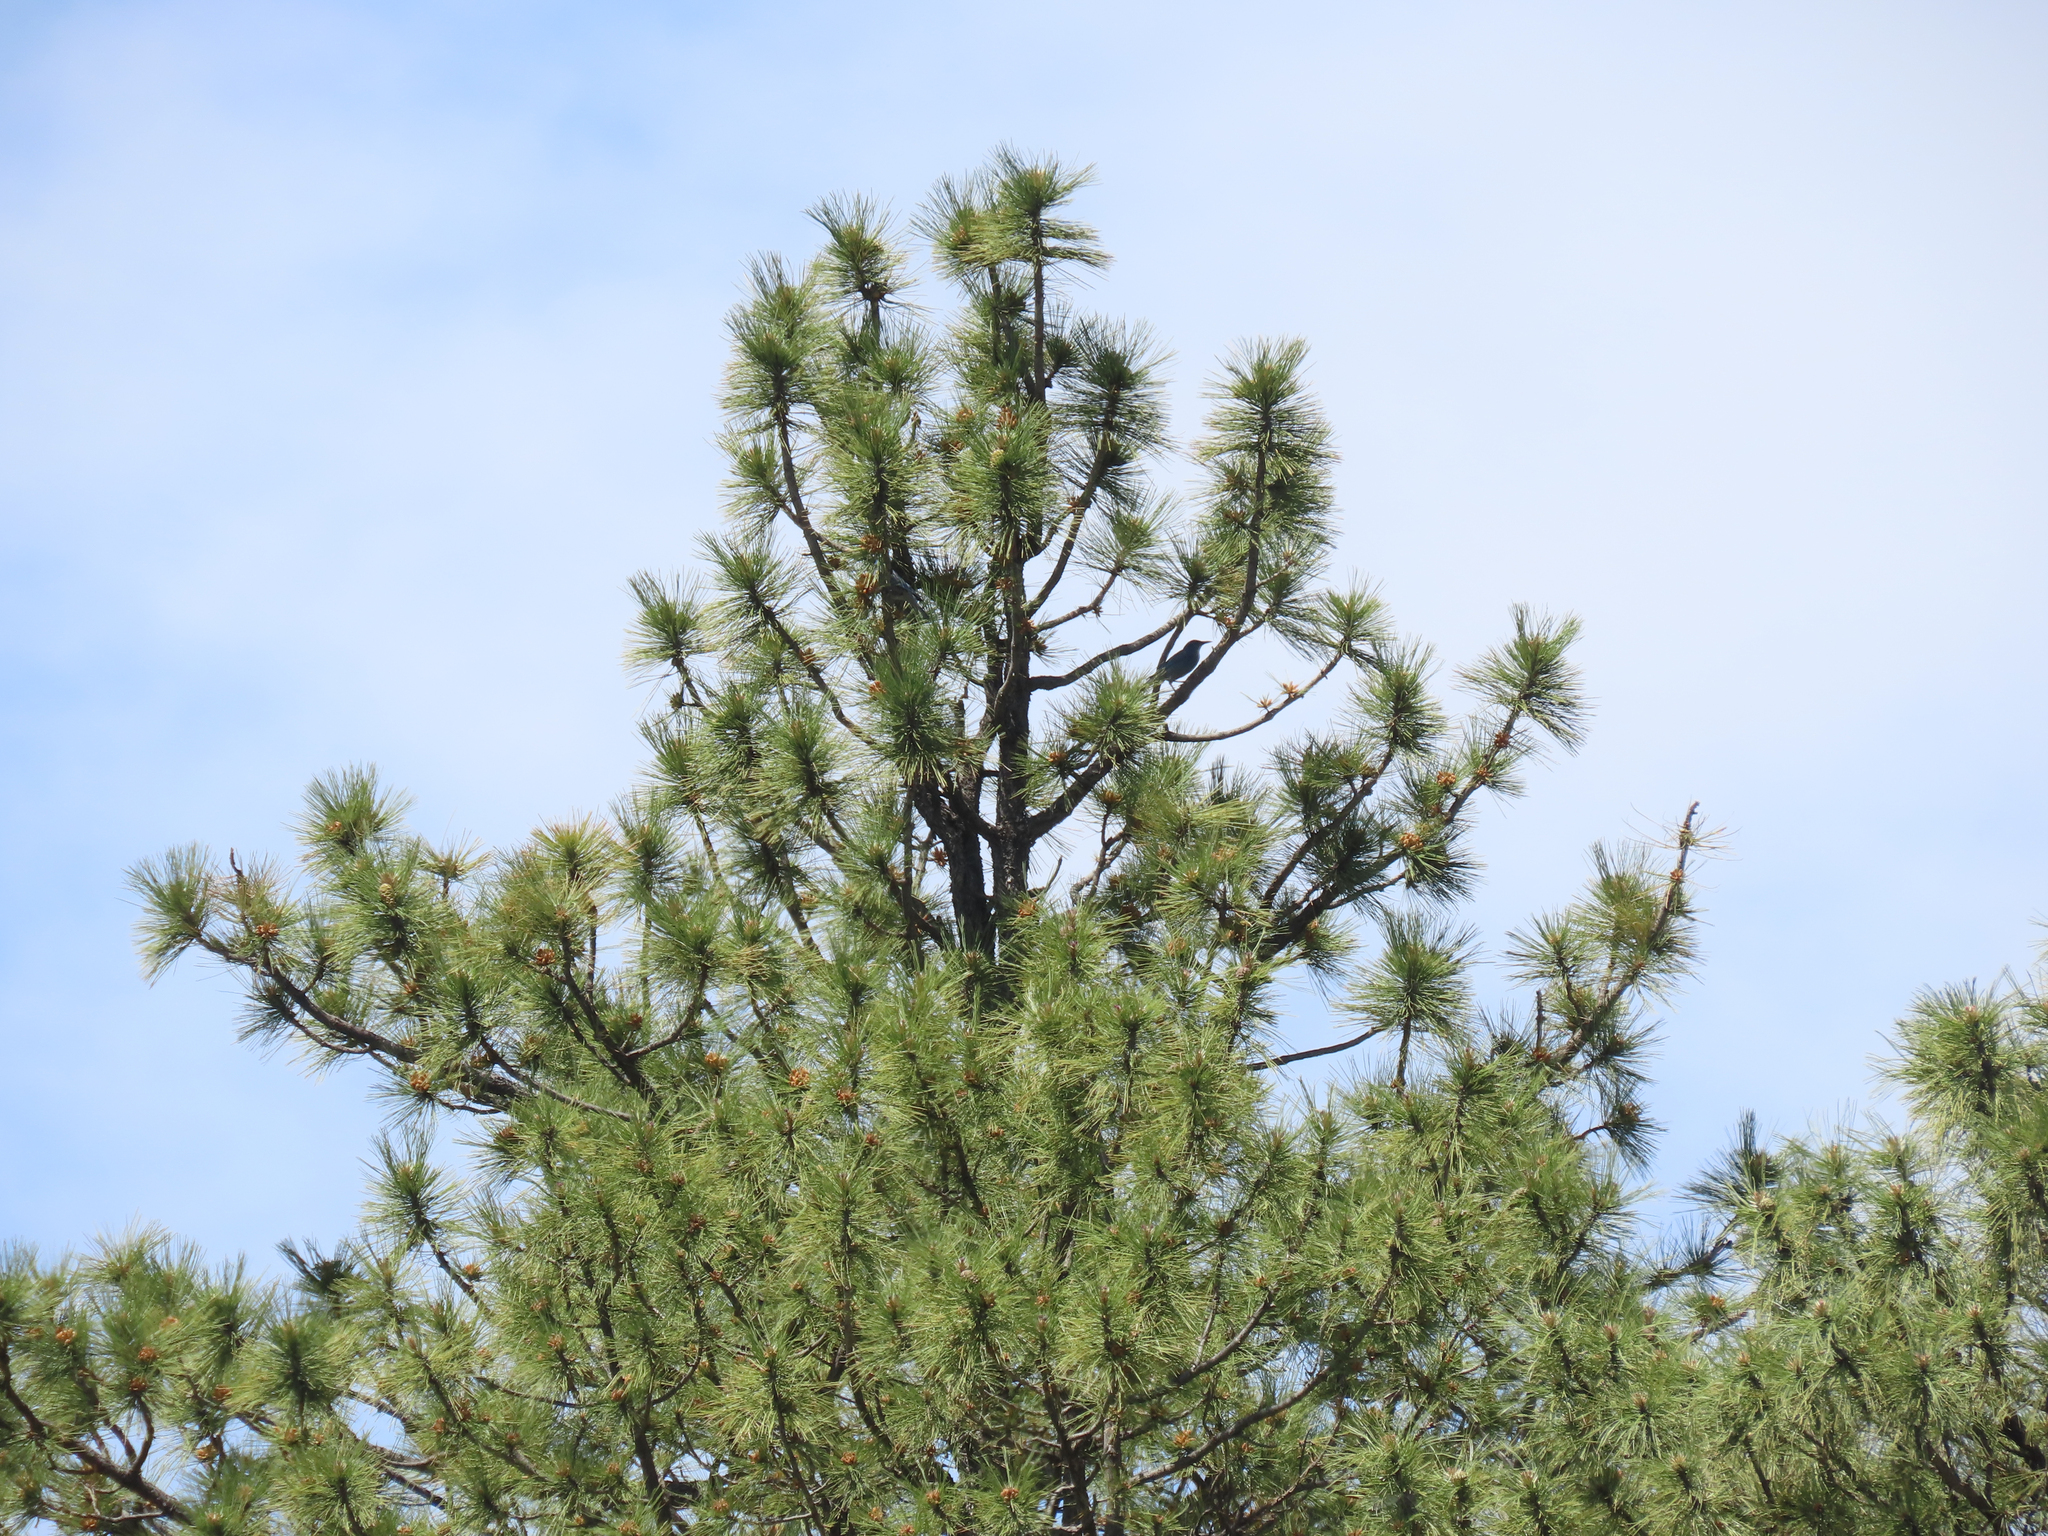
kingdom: Animalia
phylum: Chordata
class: Aves
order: Passeriformes
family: Corvidae
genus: Gymnorhinus
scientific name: Gymnorhinus cyanocephalus
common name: Pinyon jay
